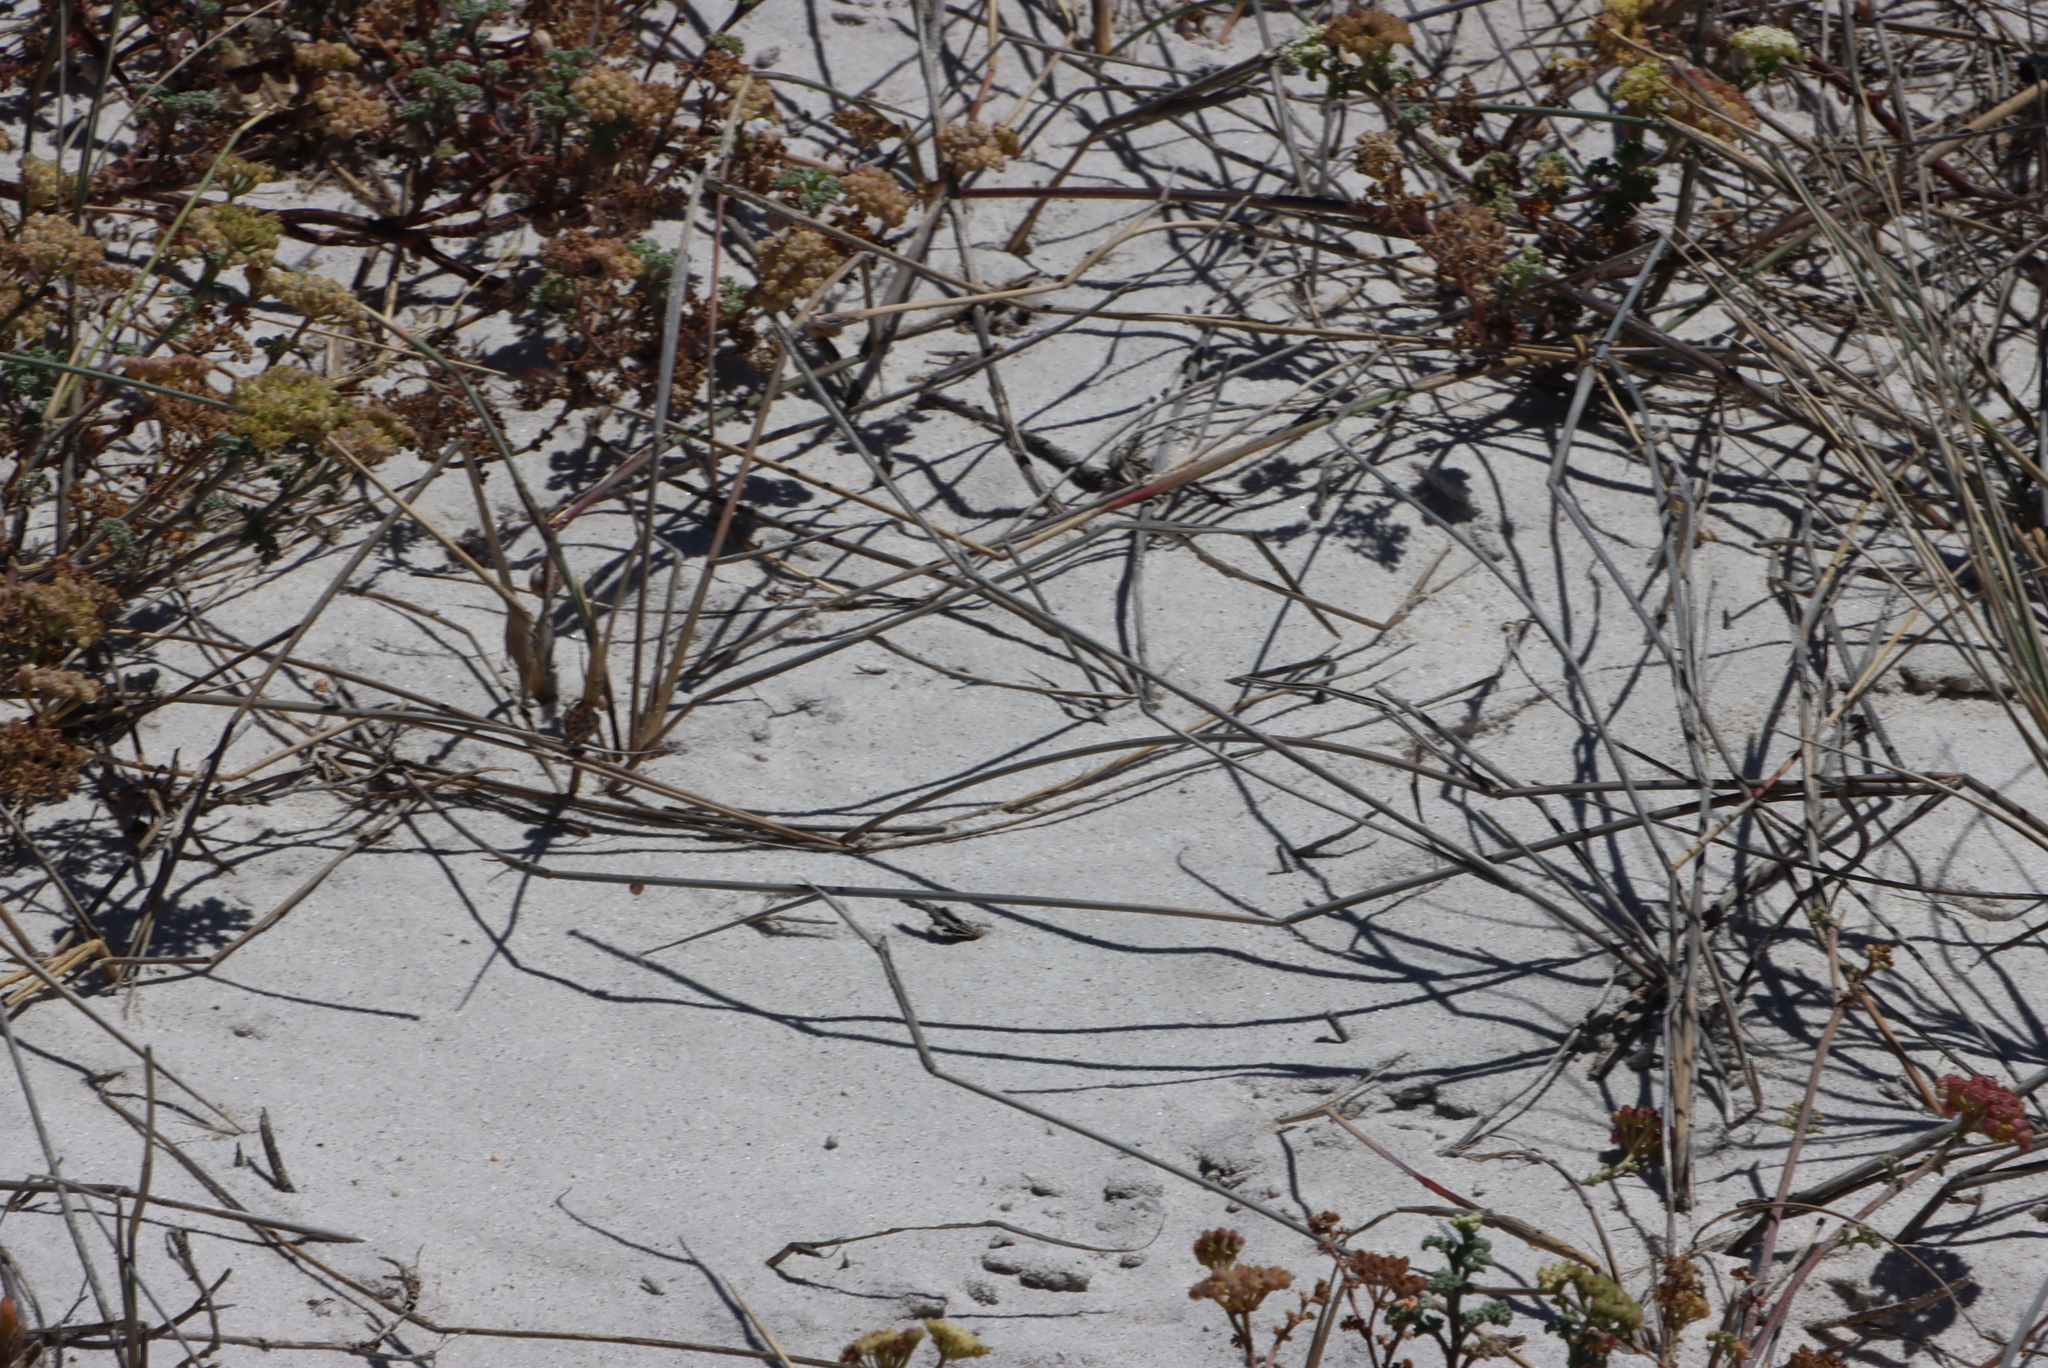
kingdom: Plantae
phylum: Tracheophyta
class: Liliopsida
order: Poales
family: Poaceae
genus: Ehrharta
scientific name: Ehrharta villosa
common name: Pyp grass
